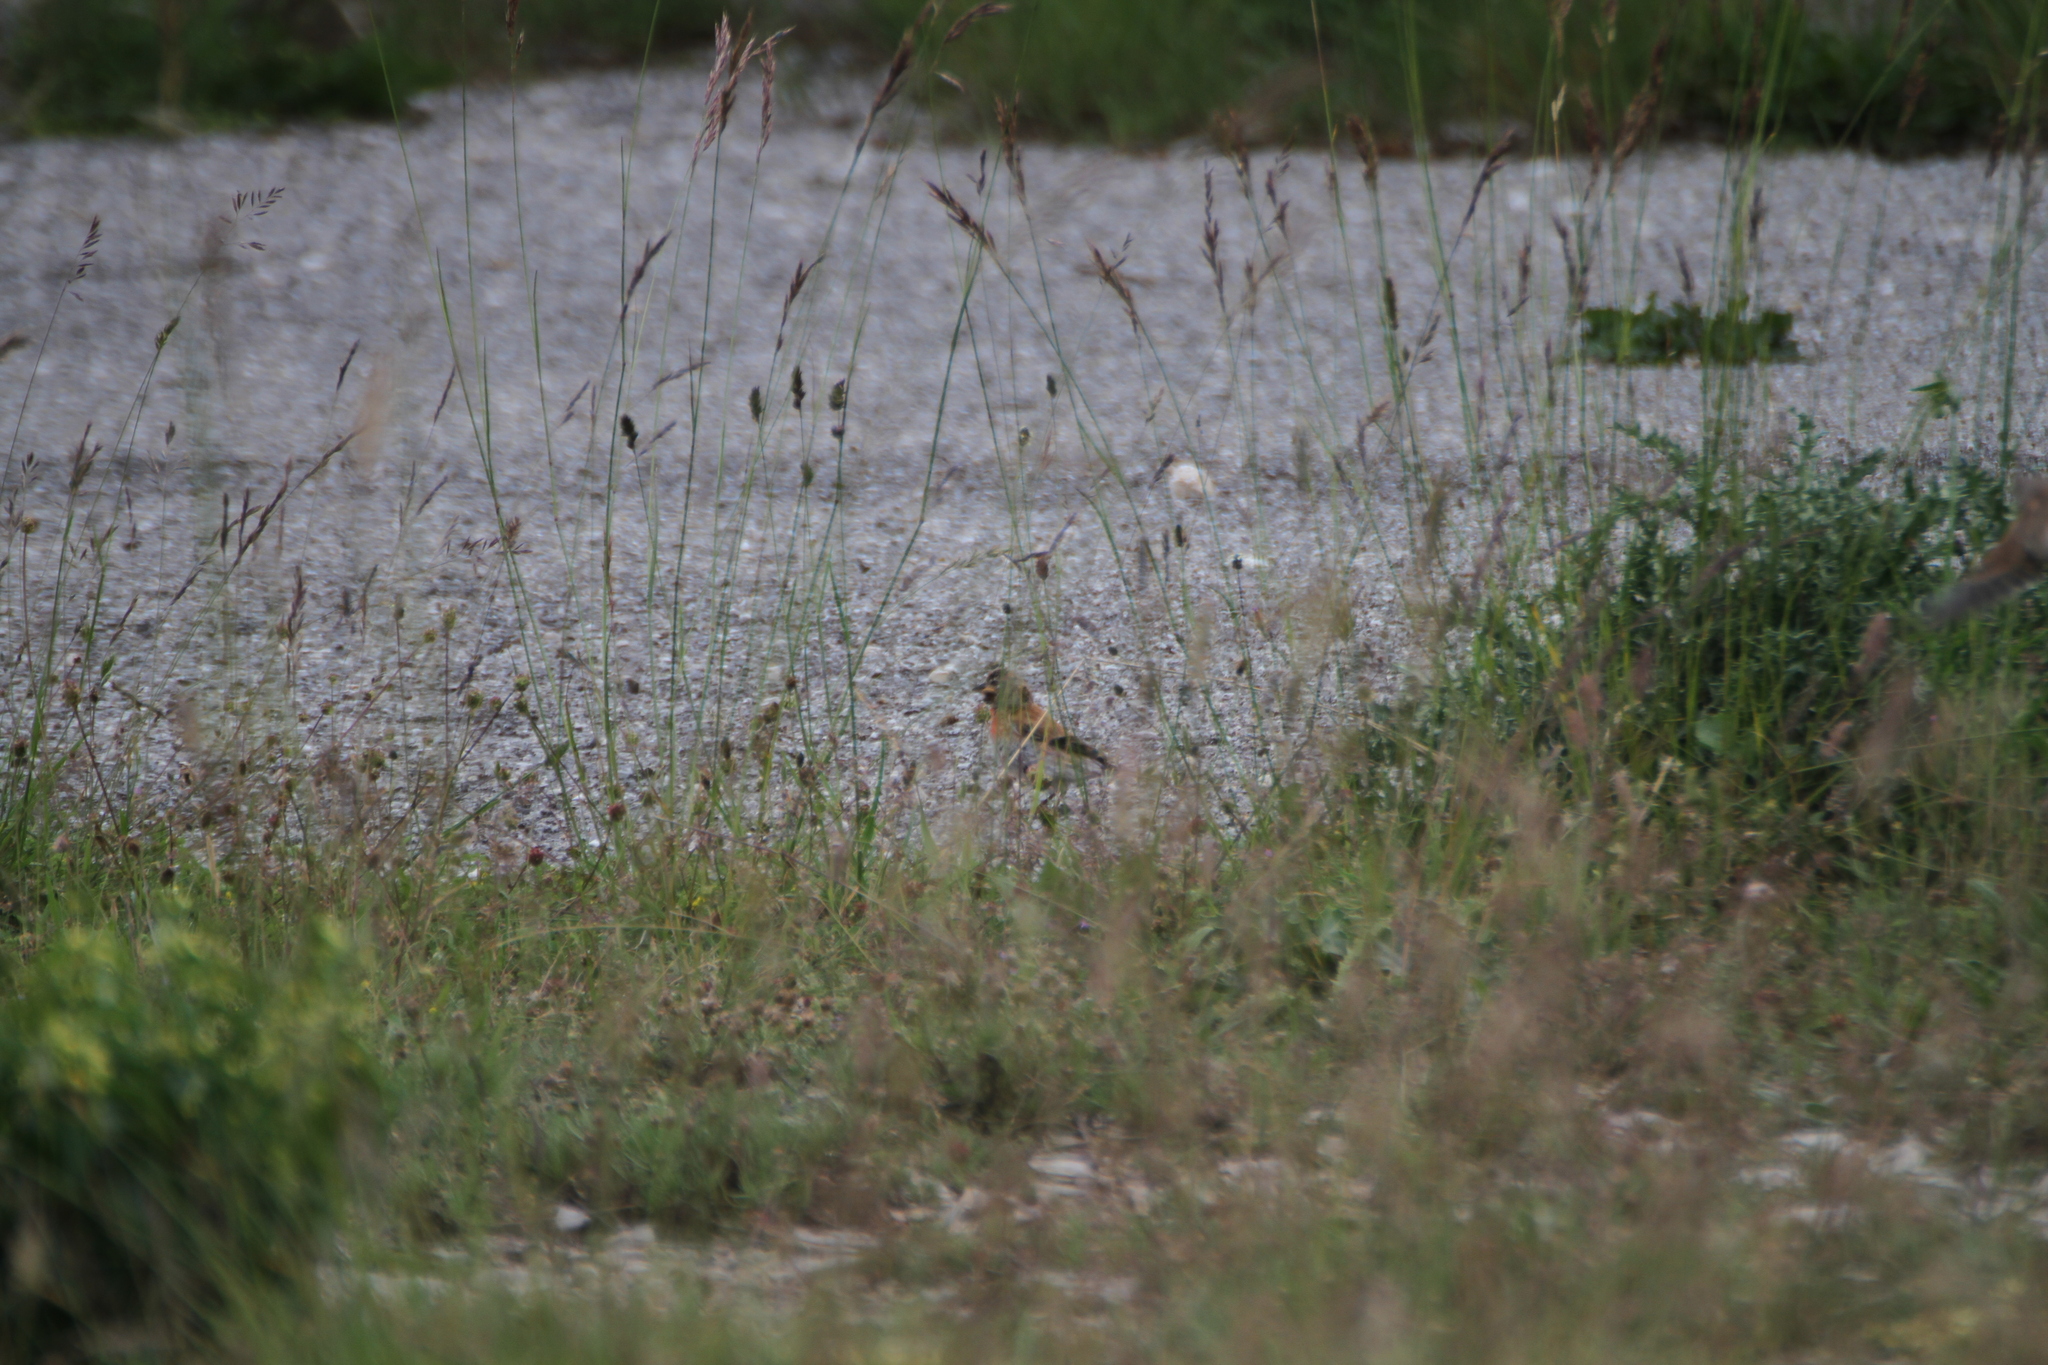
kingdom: Animalia
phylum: Chordata
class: Aves
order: Passeriformes
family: Fringillidae
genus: Linaria
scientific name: Linaria cannabina
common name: Common linnet
